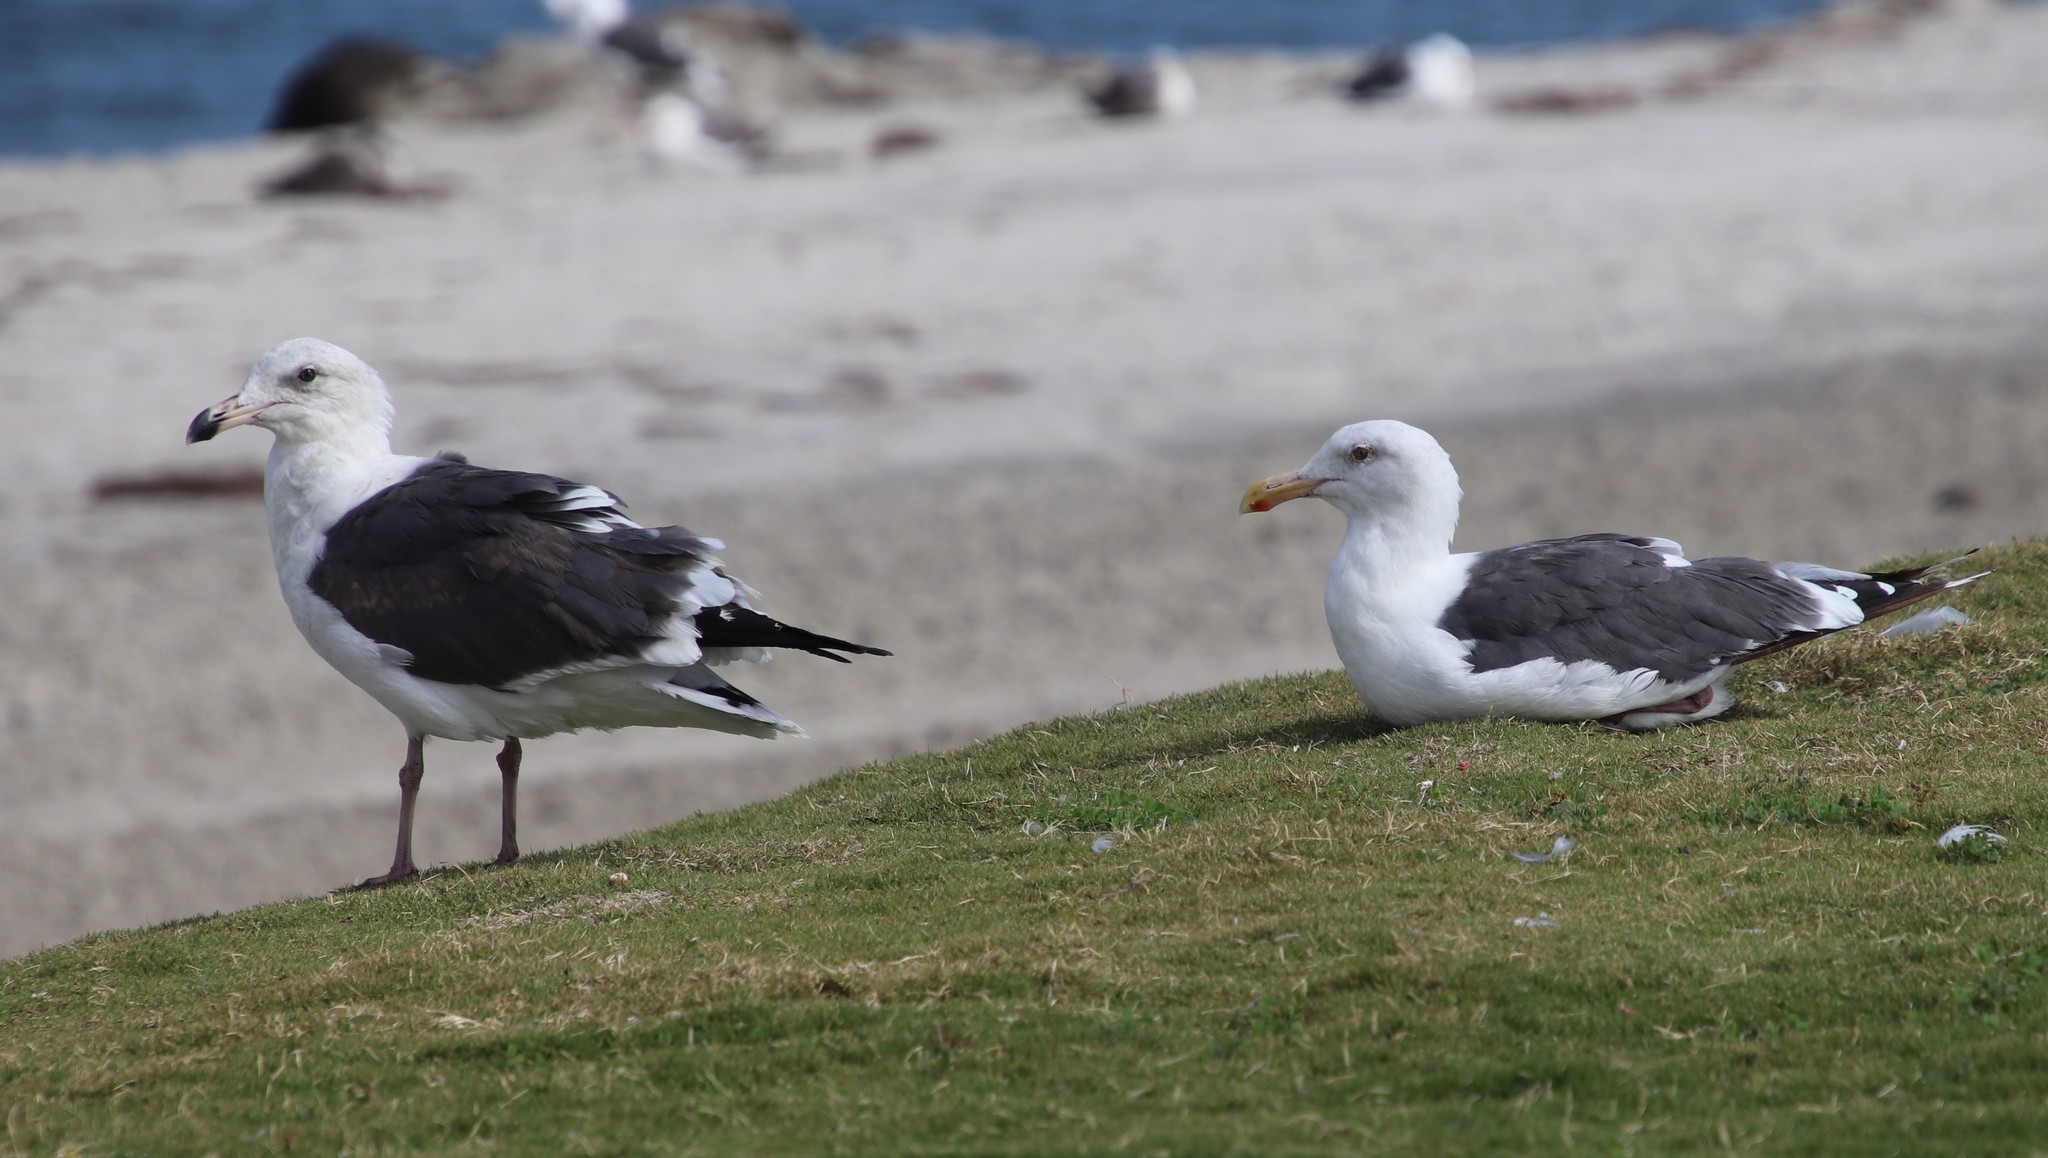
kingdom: Animalia
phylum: Chordata
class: Aves
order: Charadriiformes
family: Laridae
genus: Larus
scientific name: Larus occidentalis
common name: Western gull
